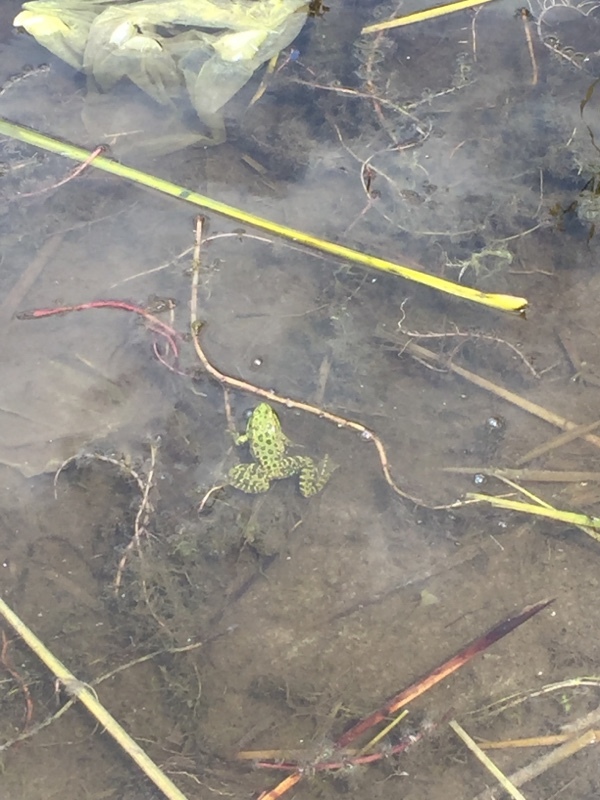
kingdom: Animalia
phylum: Chordata
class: Amphibia
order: Anura
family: Ranidae
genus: Pelophylax
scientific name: Pelophylax ridibundus
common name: Marsh frog
